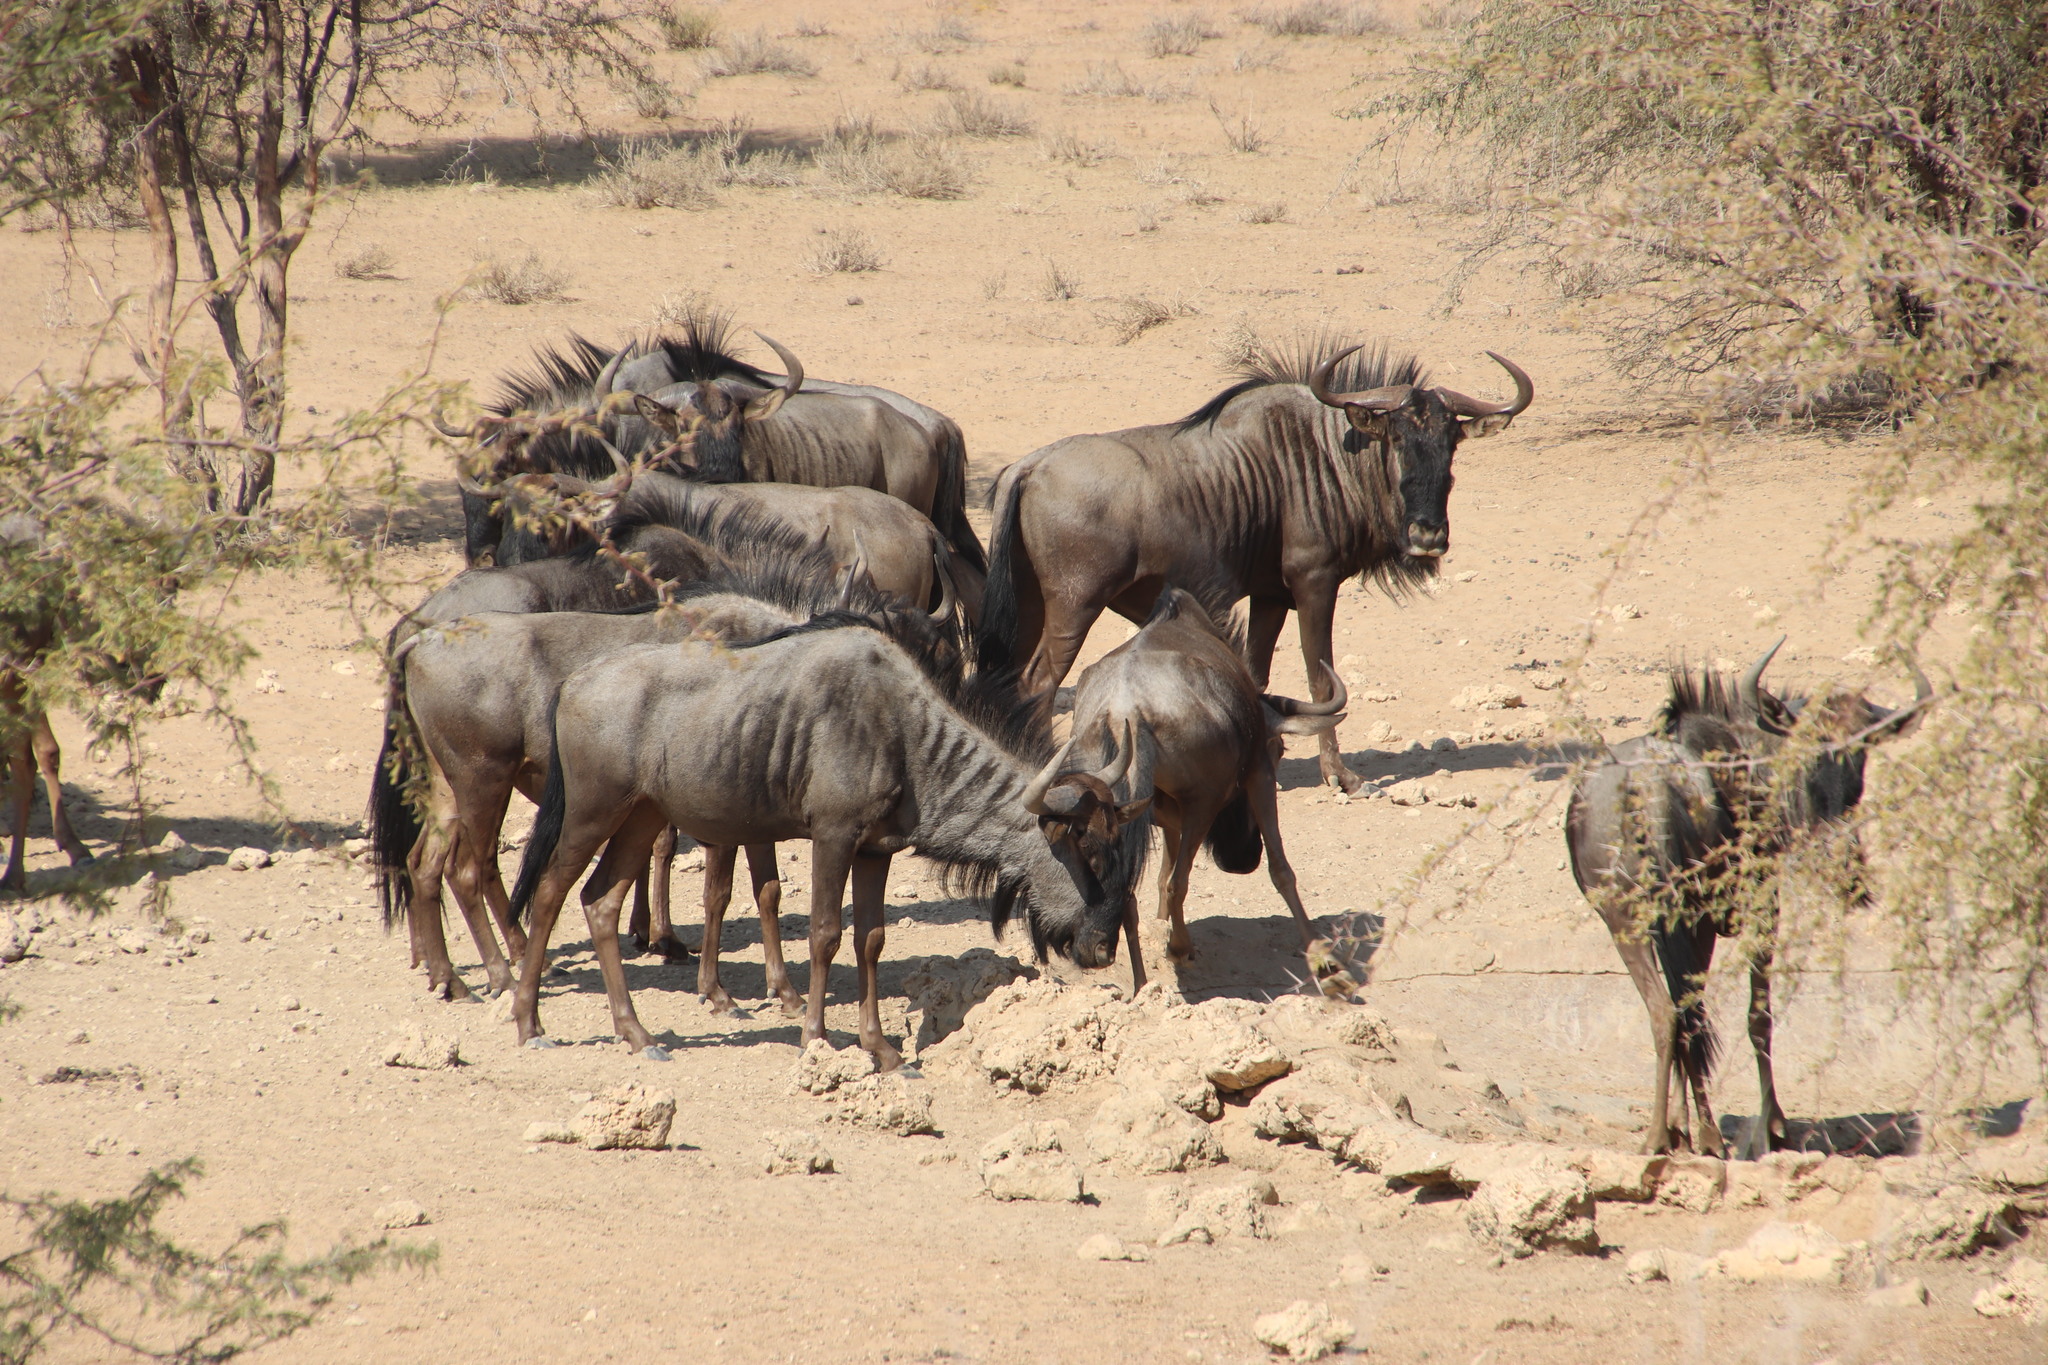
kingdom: Animalia
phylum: Chordata
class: Mammalia
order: Artiodactyla
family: Bovidae
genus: Connochaetes
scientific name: Connochaetes taurinus
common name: Blue wildebeest
